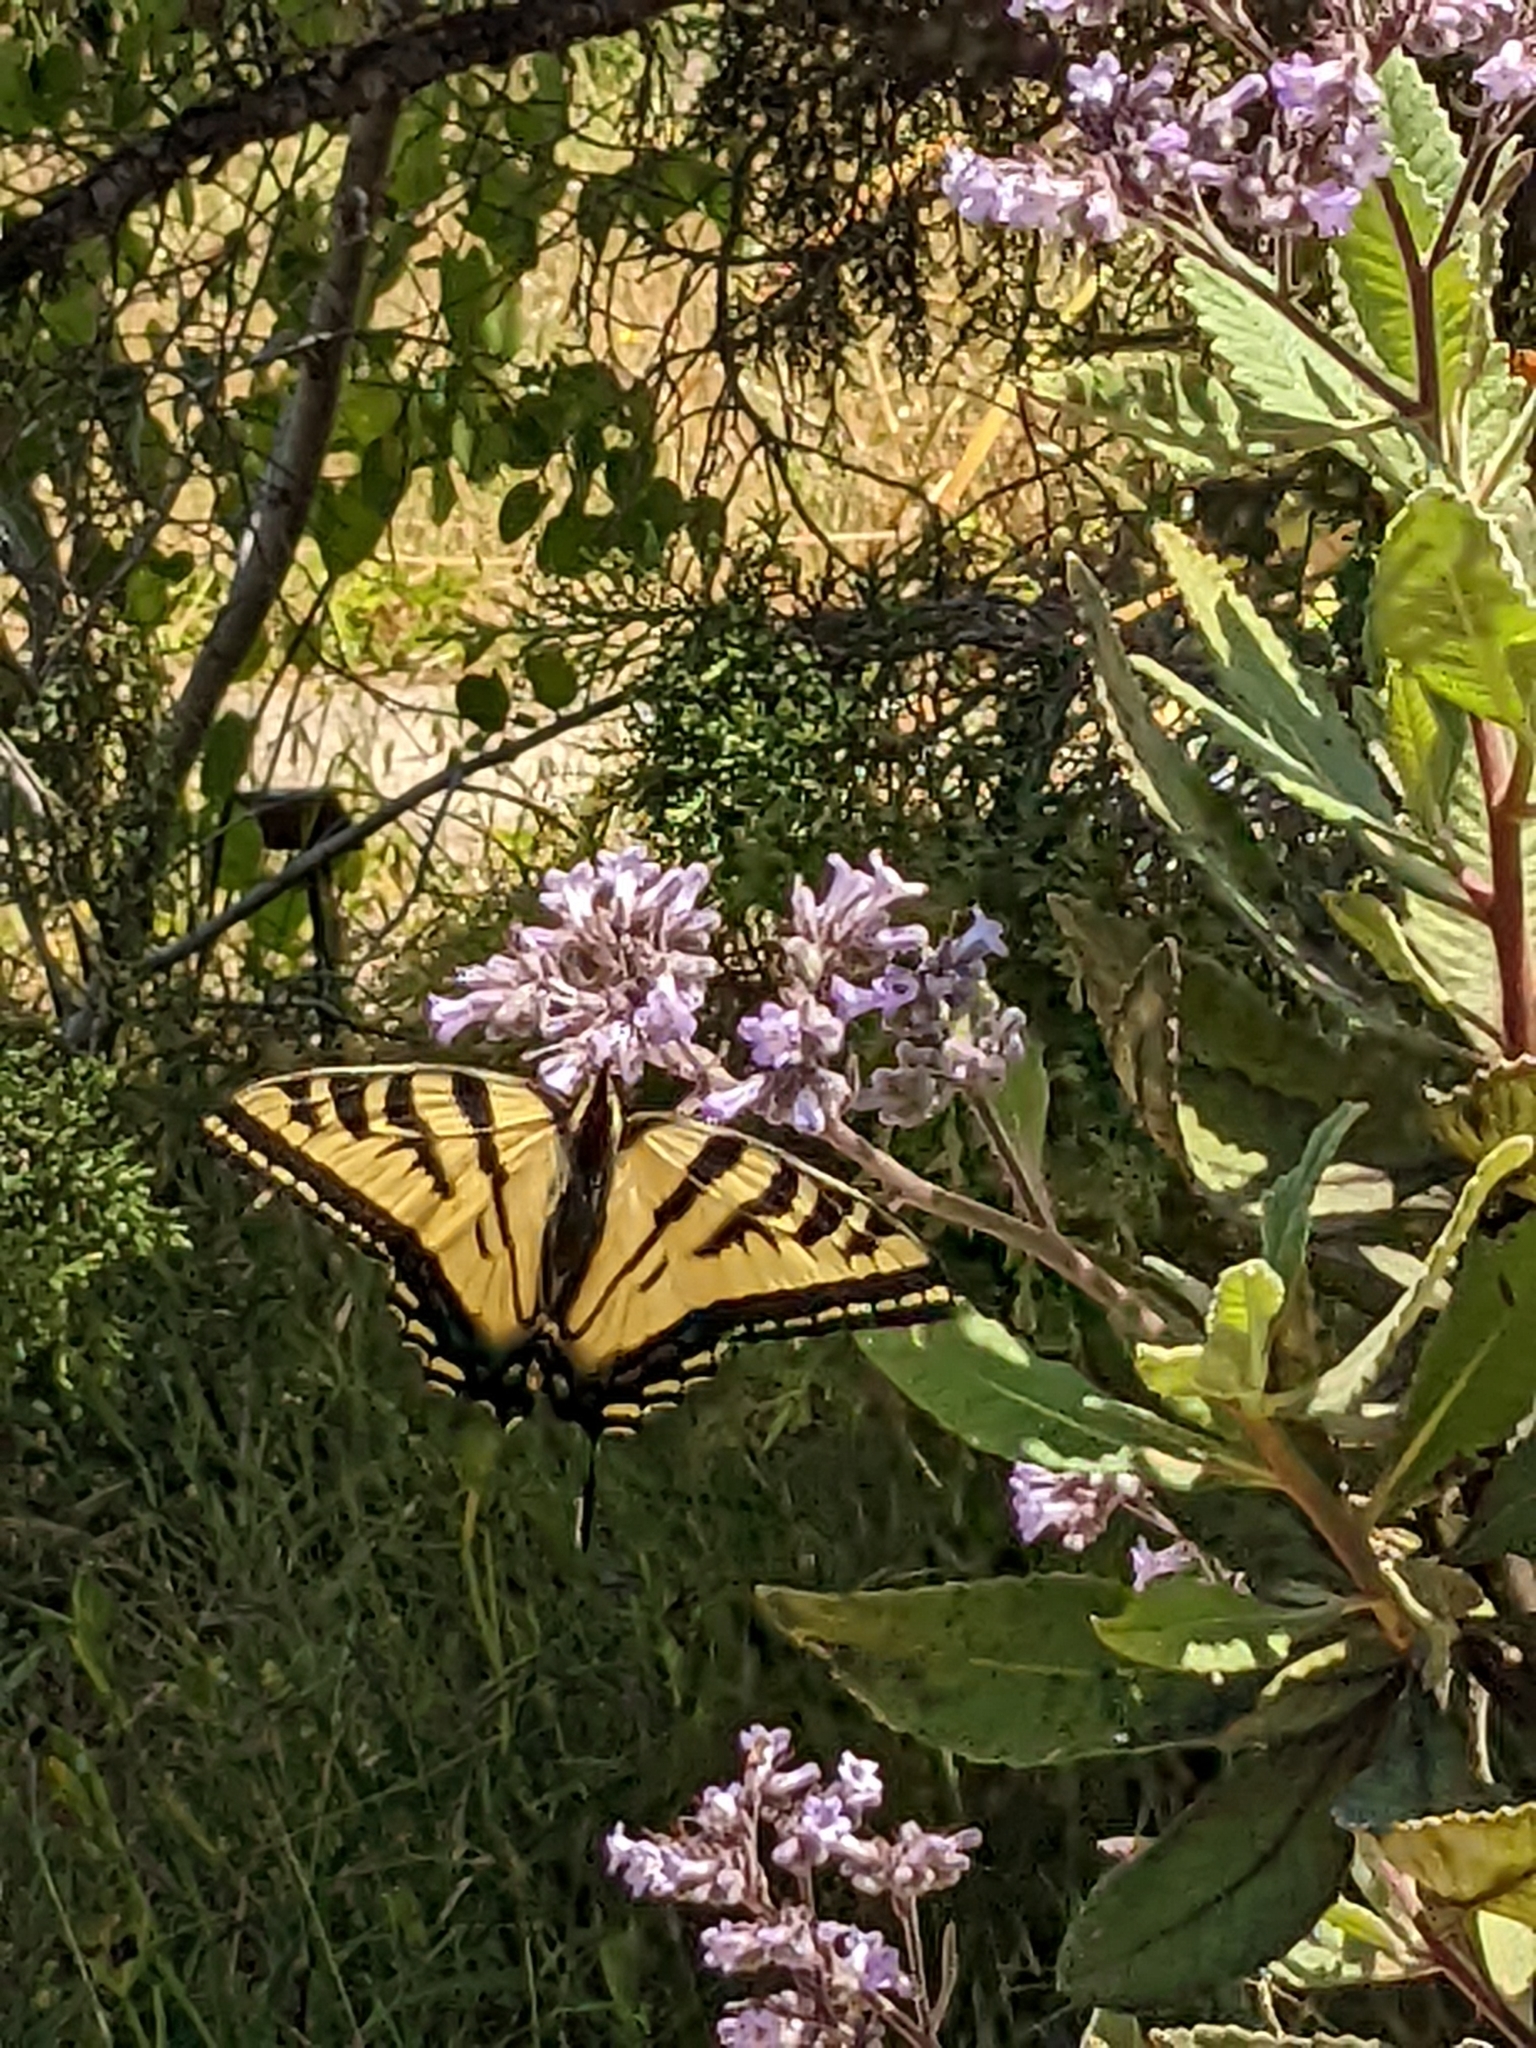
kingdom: Animalia
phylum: Arthropoda
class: Insecta
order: Lepidoptera
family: Papilionidae
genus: Papilio
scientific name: Papilio rutulus
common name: Western tiger swallowtail
